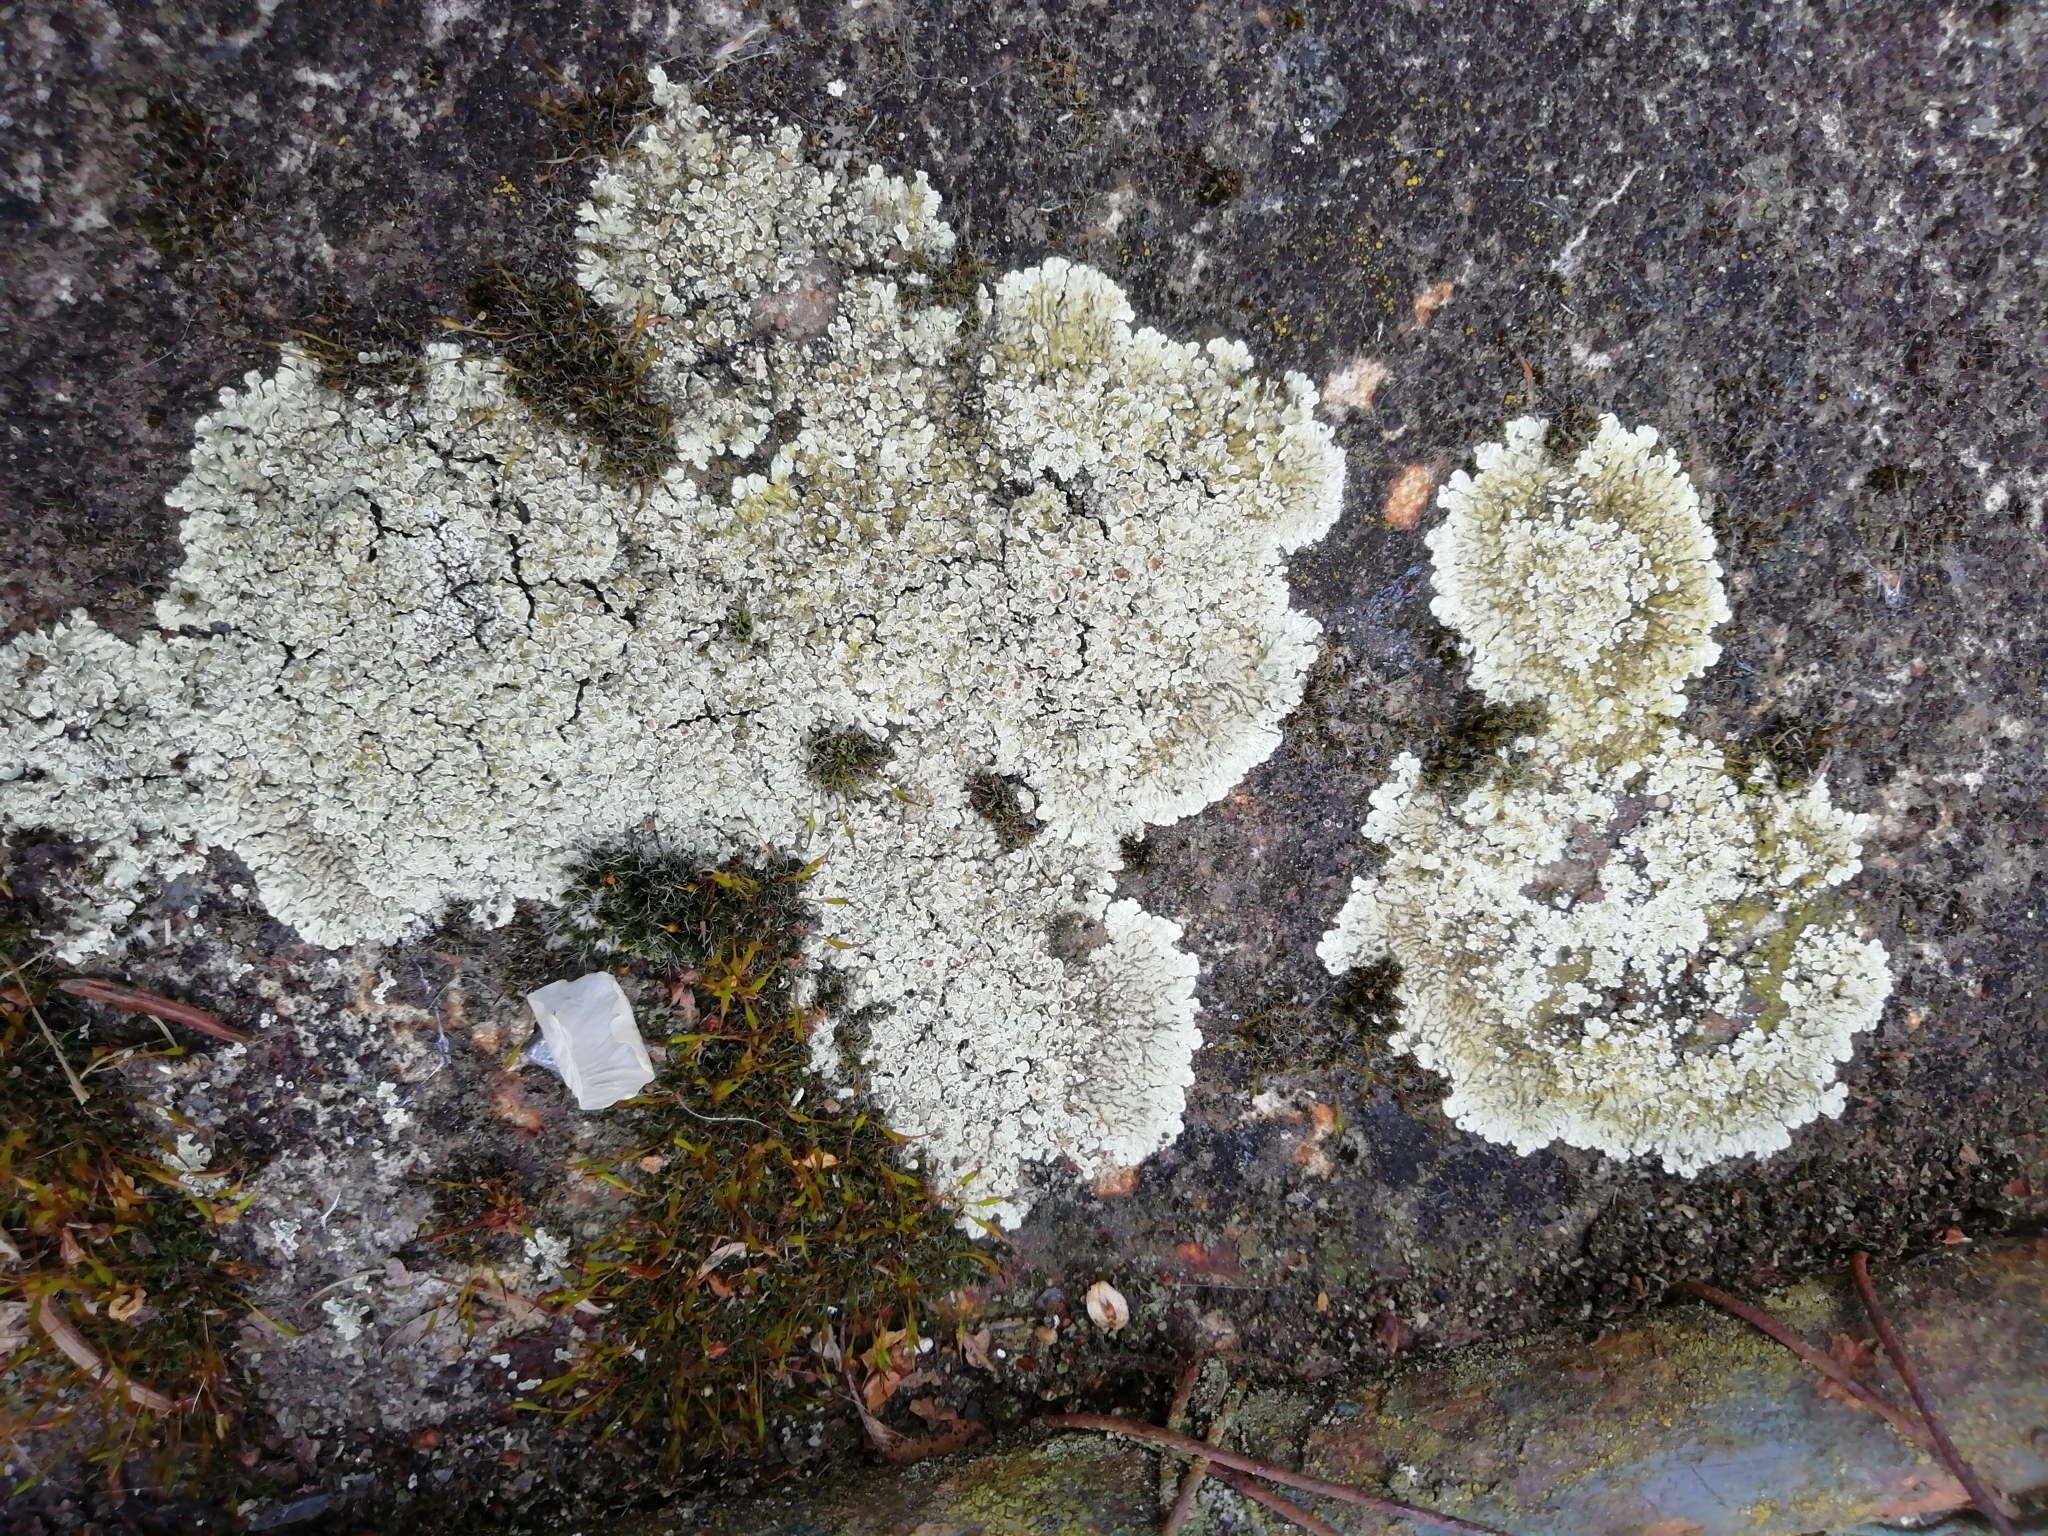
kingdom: Fungi
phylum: Ascomycota
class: Lecanoromycetes
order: Lecanorales
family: Lecanoraceae
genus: Protoparmeliopsis
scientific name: Protoparmeliopsis muralis
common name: Stonewall rim lichen
